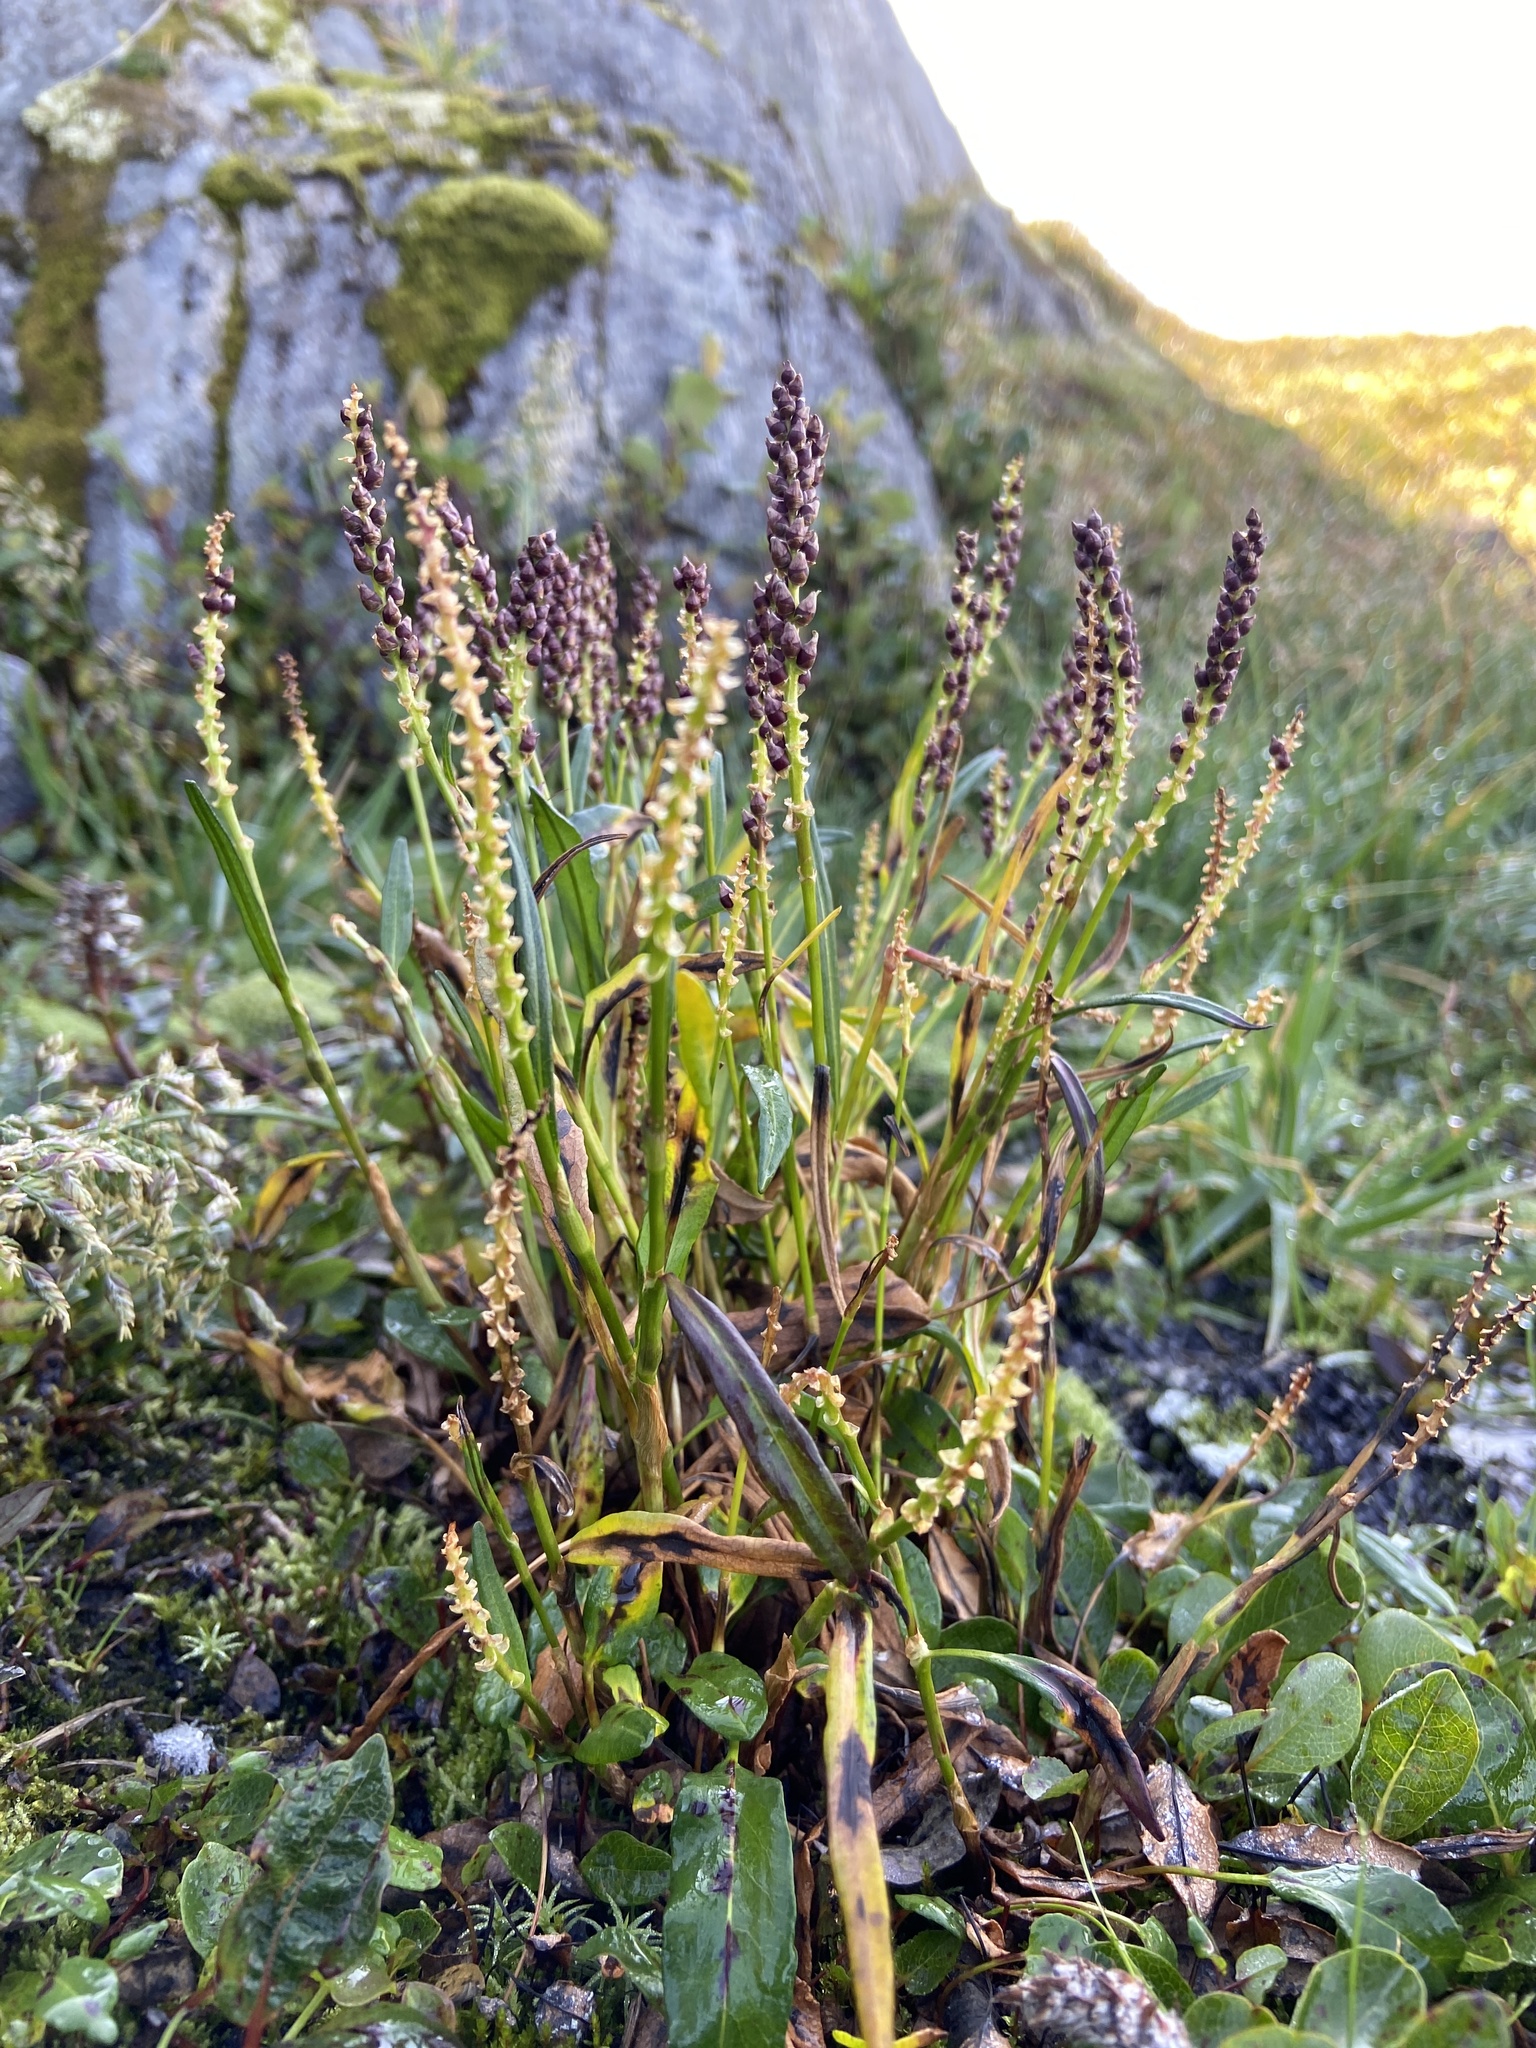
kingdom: Plantae
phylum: Tracheophyta
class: Magnoliopsida
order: Caryophyllales
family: Polygonaceae
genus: Bistorta
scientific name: Bistorta vivipara
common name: Alpine bistort
